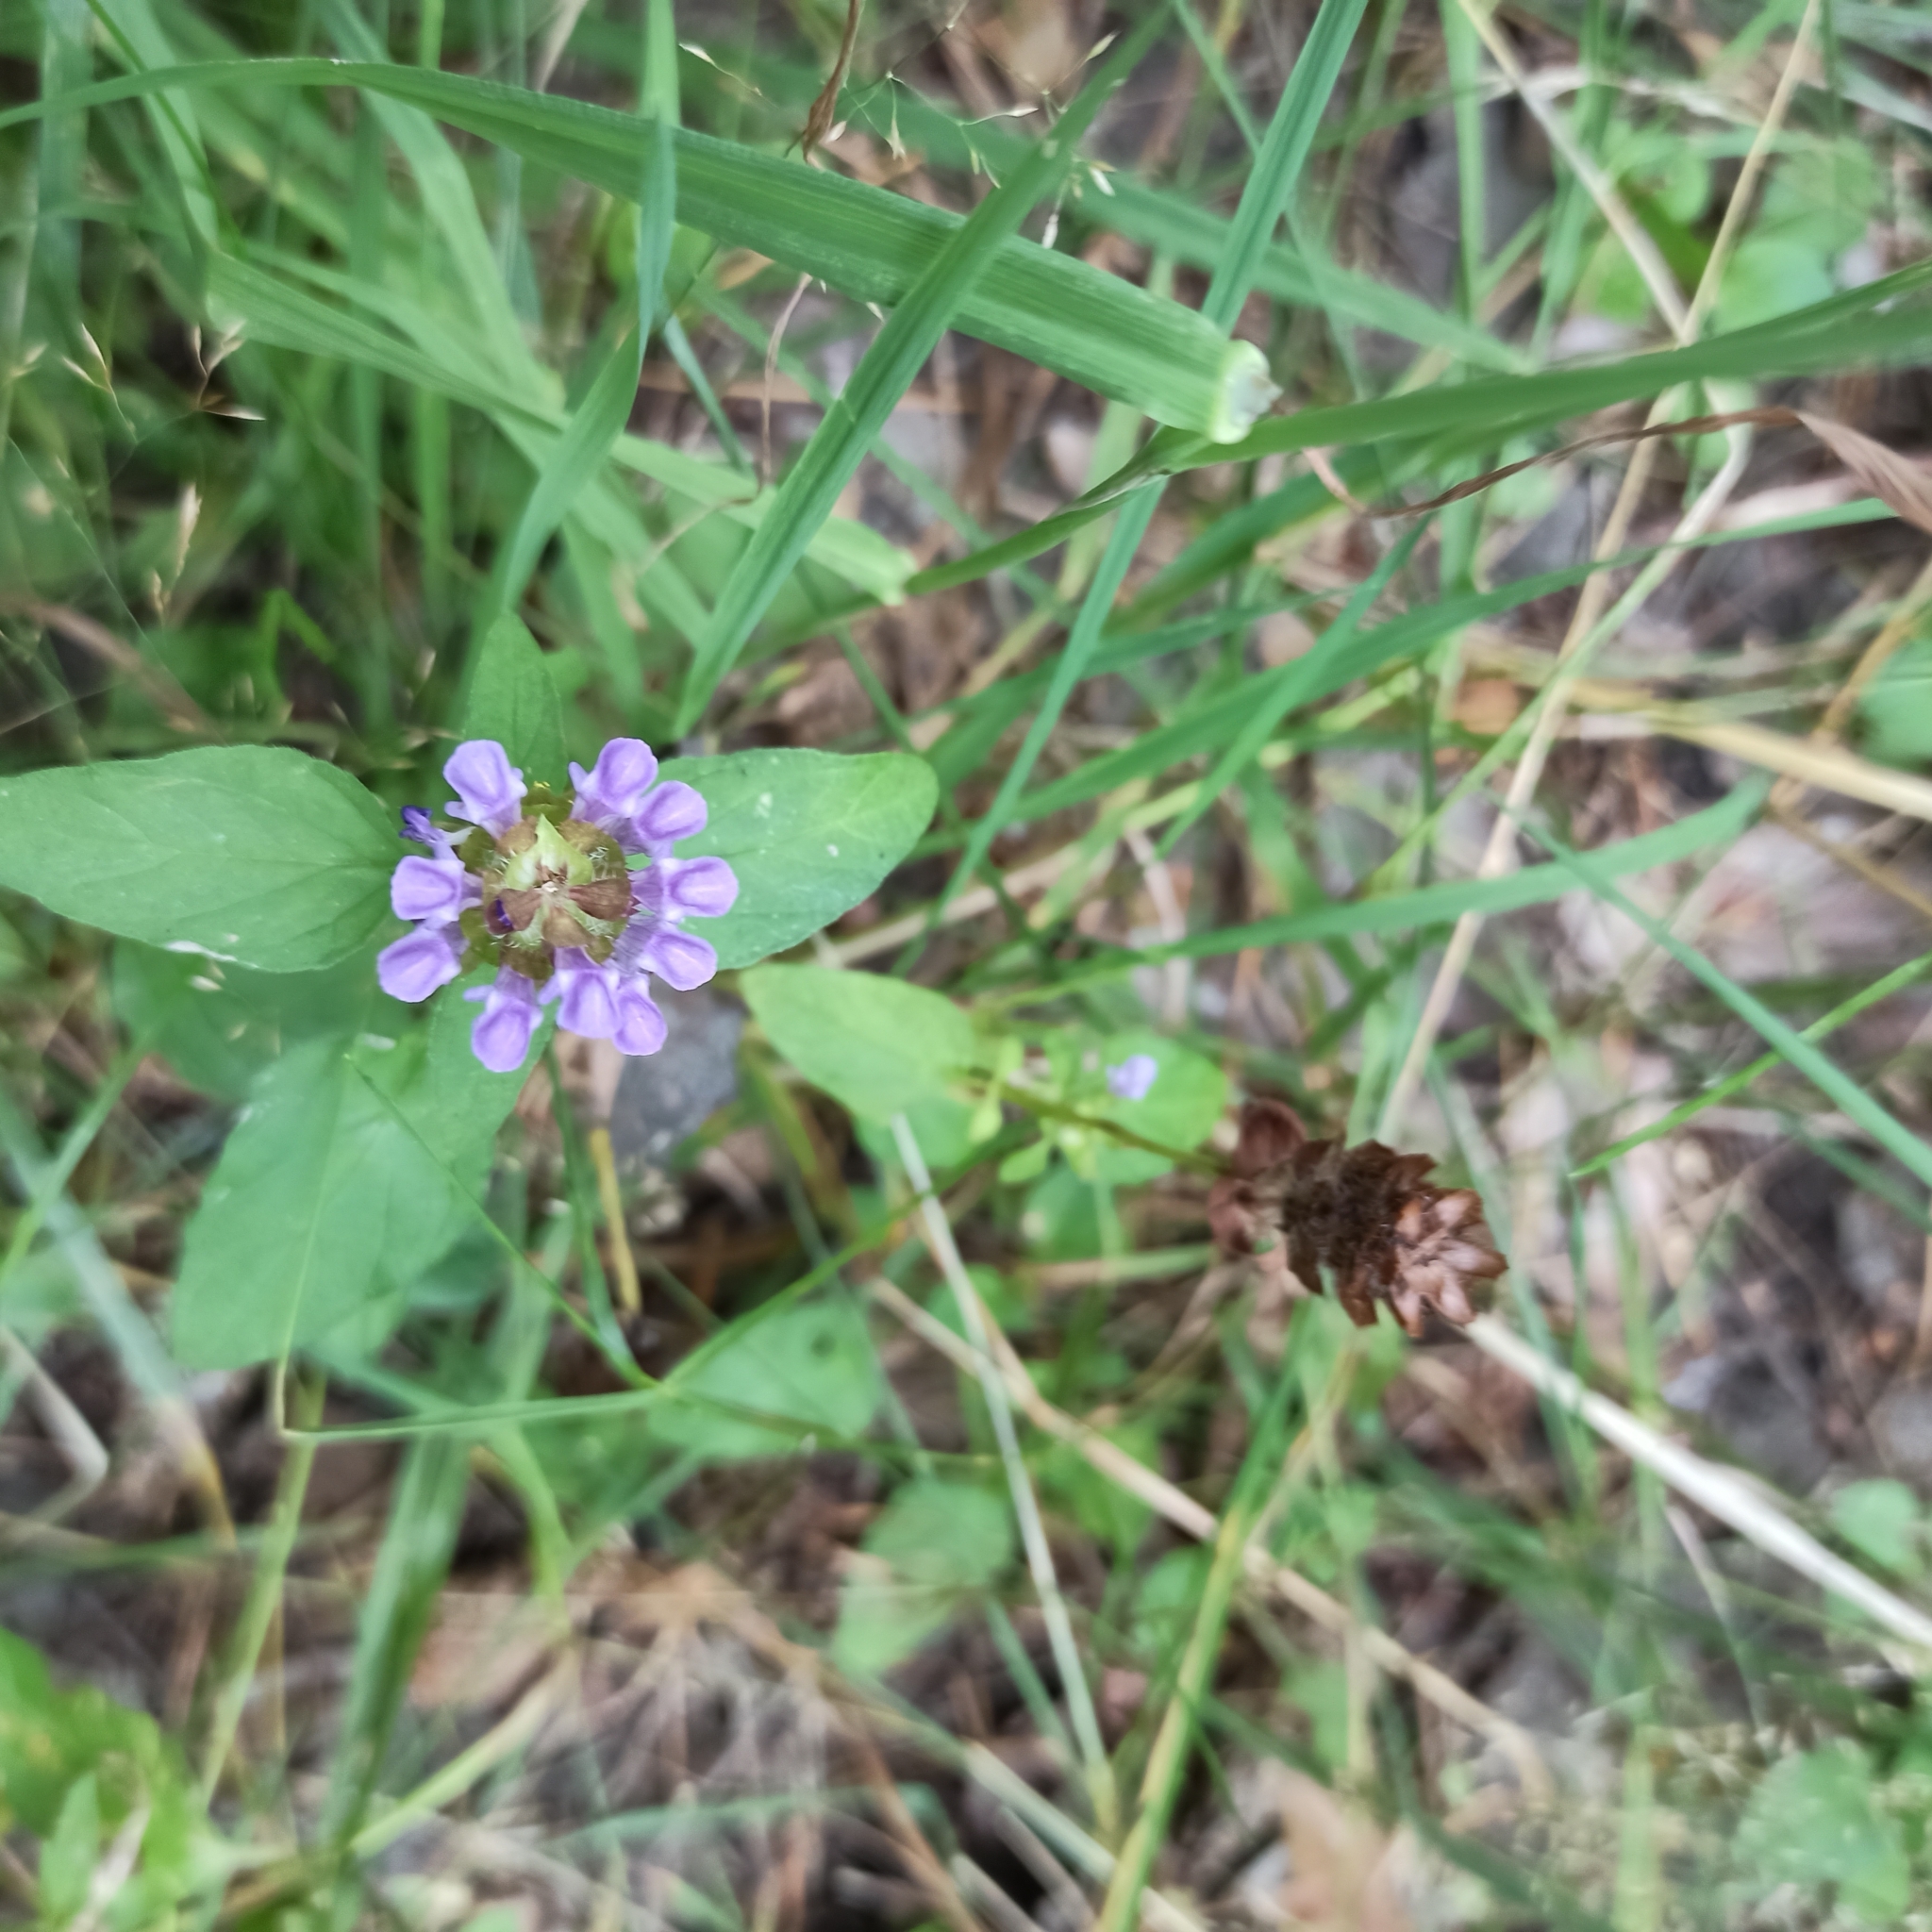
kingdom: Plantae
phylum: Tracheophyta
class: Magnoliopsida
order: Lamiales
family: Lamiaceae
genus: Prunella
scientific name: Prunella vulgaris
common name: Heal-all
